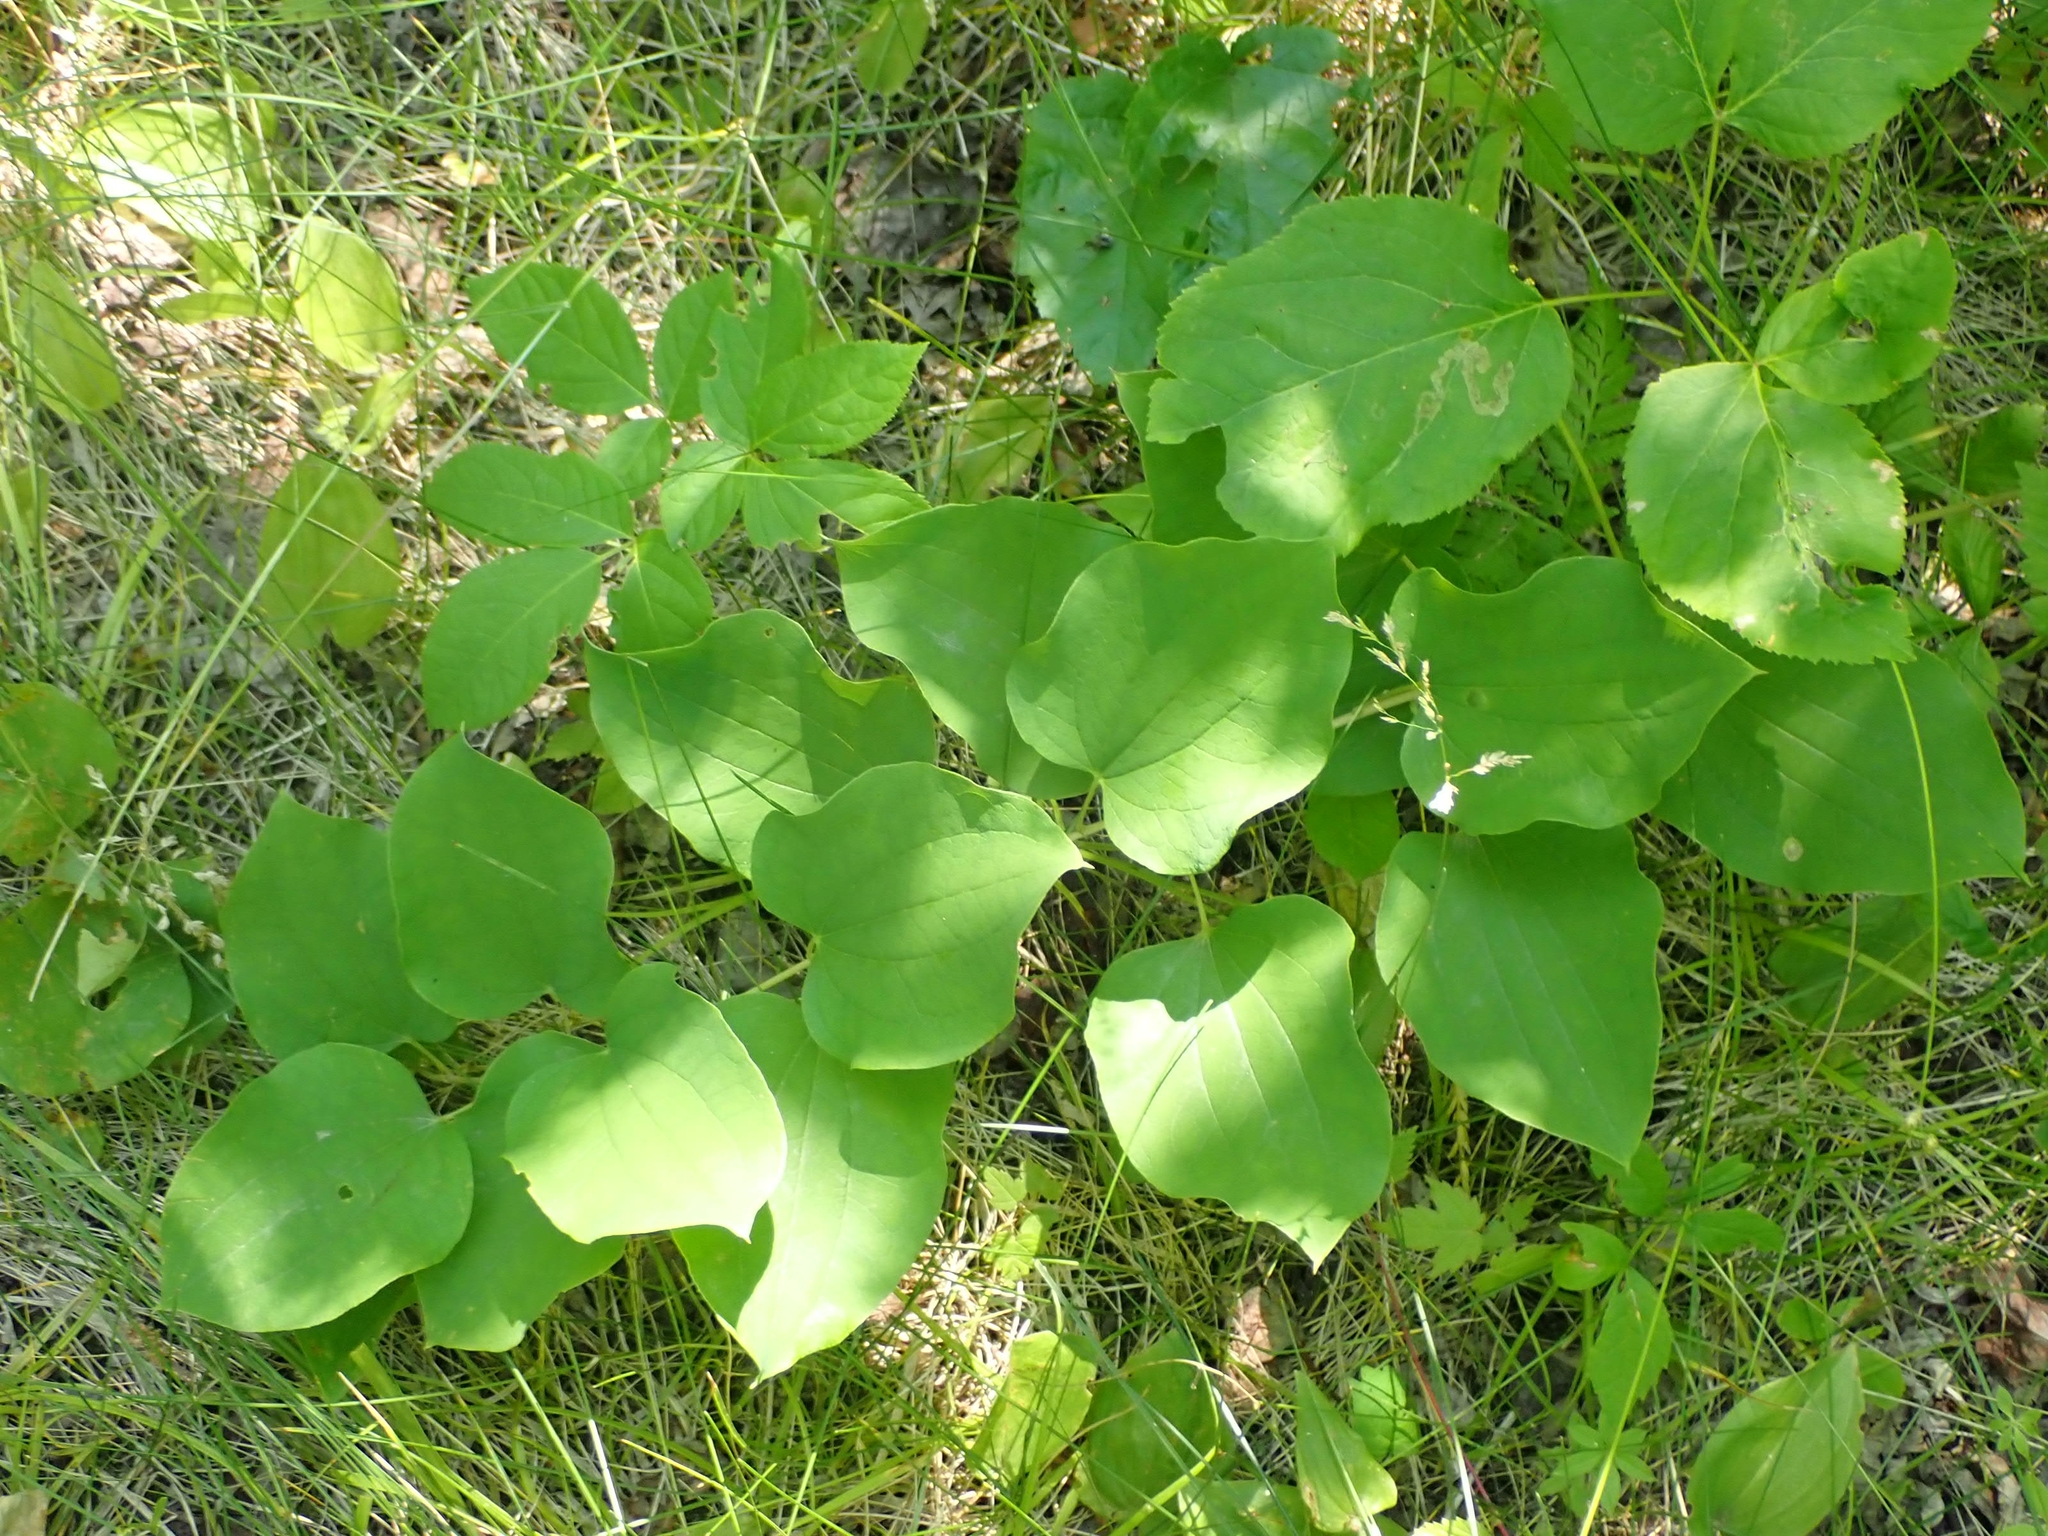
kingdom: Plantae
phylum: Tracheophyta
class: Liliopsida
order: Liliales
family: Smilacaceae
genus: Smilax
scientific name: Smilax lasioneura
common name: Blue ridge carrionflower
